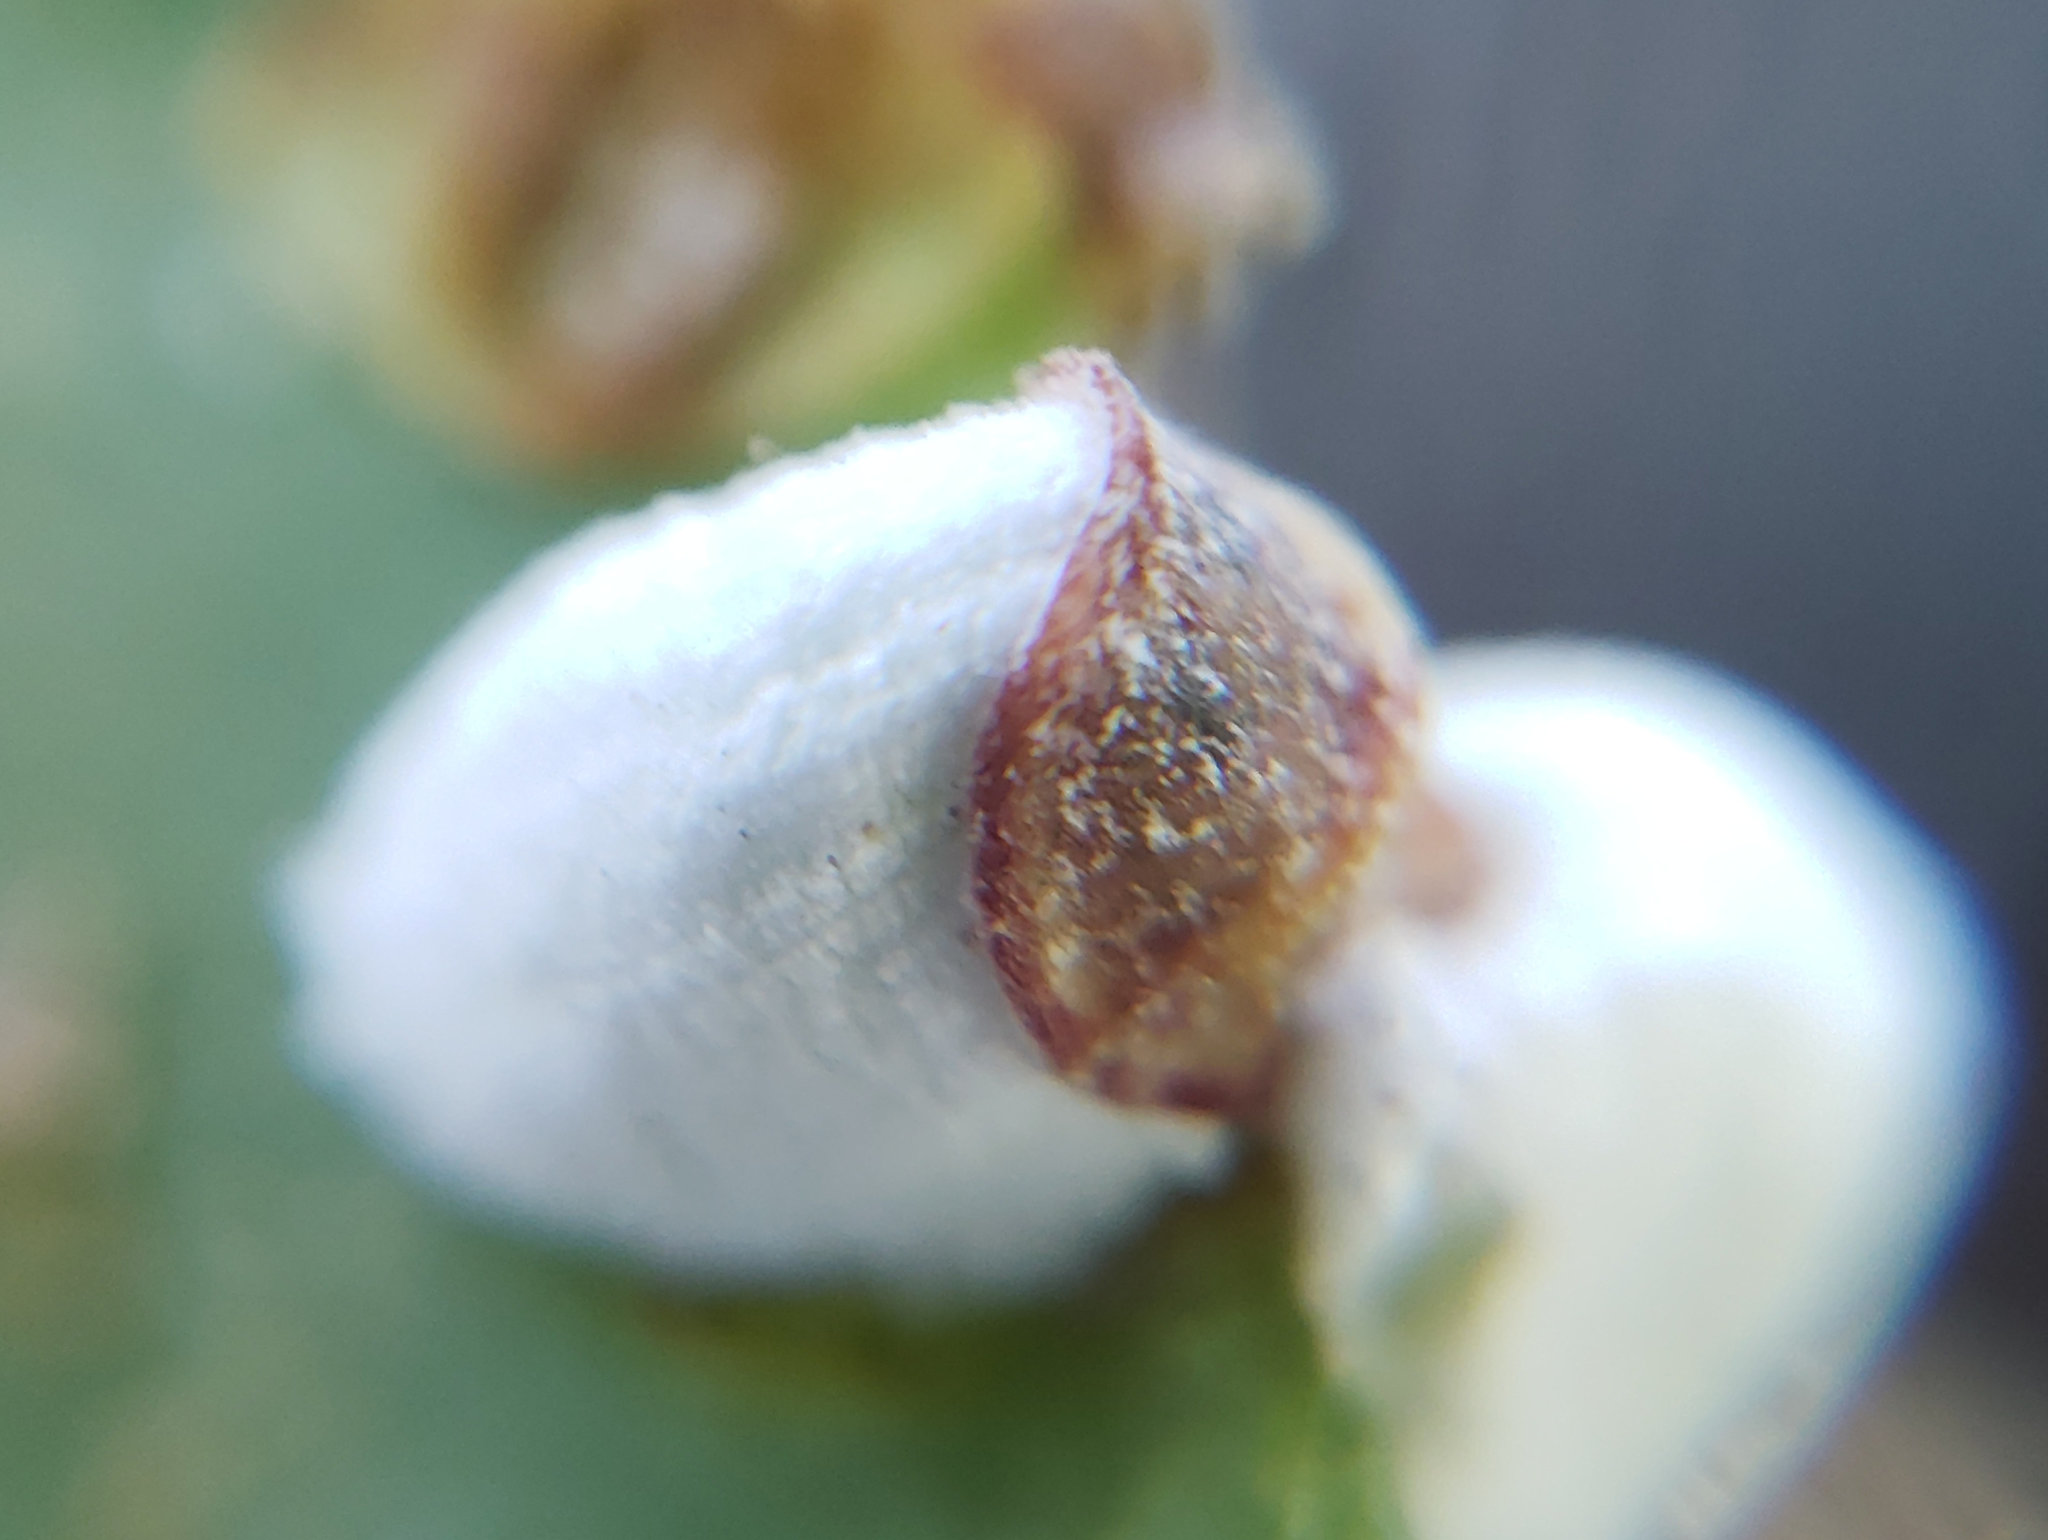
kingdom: Animalia
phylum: Arthropoda
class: Insecta
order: Hemiptera
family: Coccidae
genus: Pulvinariella
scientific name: Pulvinariella mesembryanthemi
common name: Cottony pigface scale
